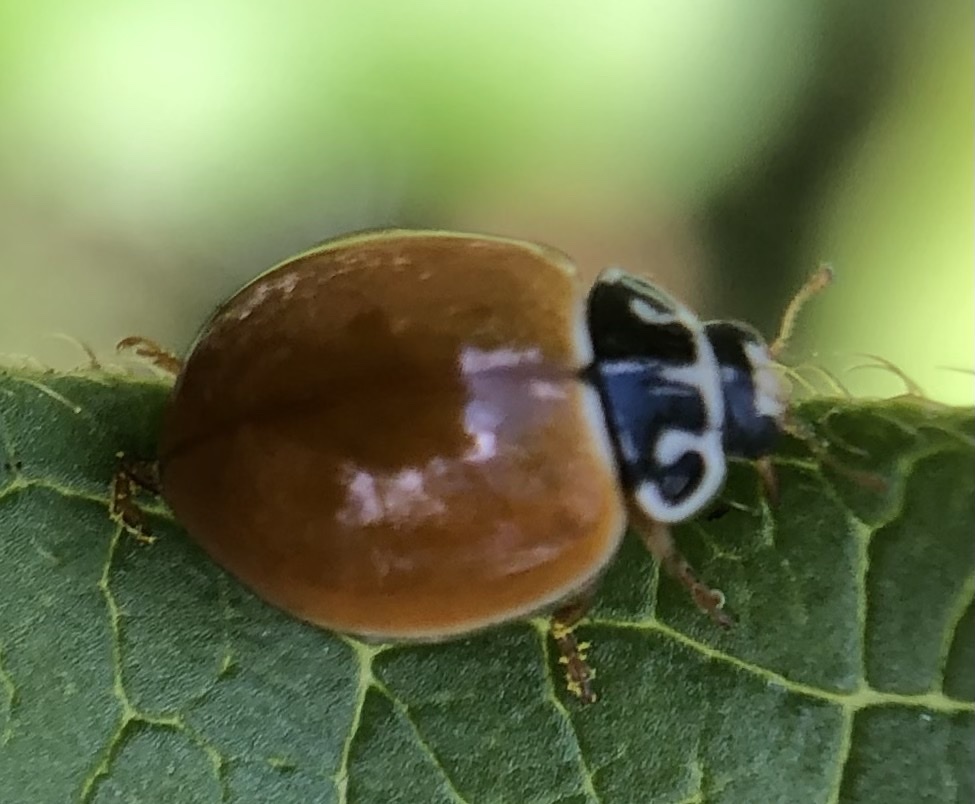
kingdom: Animalia
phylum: Arthropoda
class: Insecta
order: Coleoptera
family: Coccinellidae
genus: Cycloneda
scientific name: Cycloneda munda
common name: Polished lady beetle
